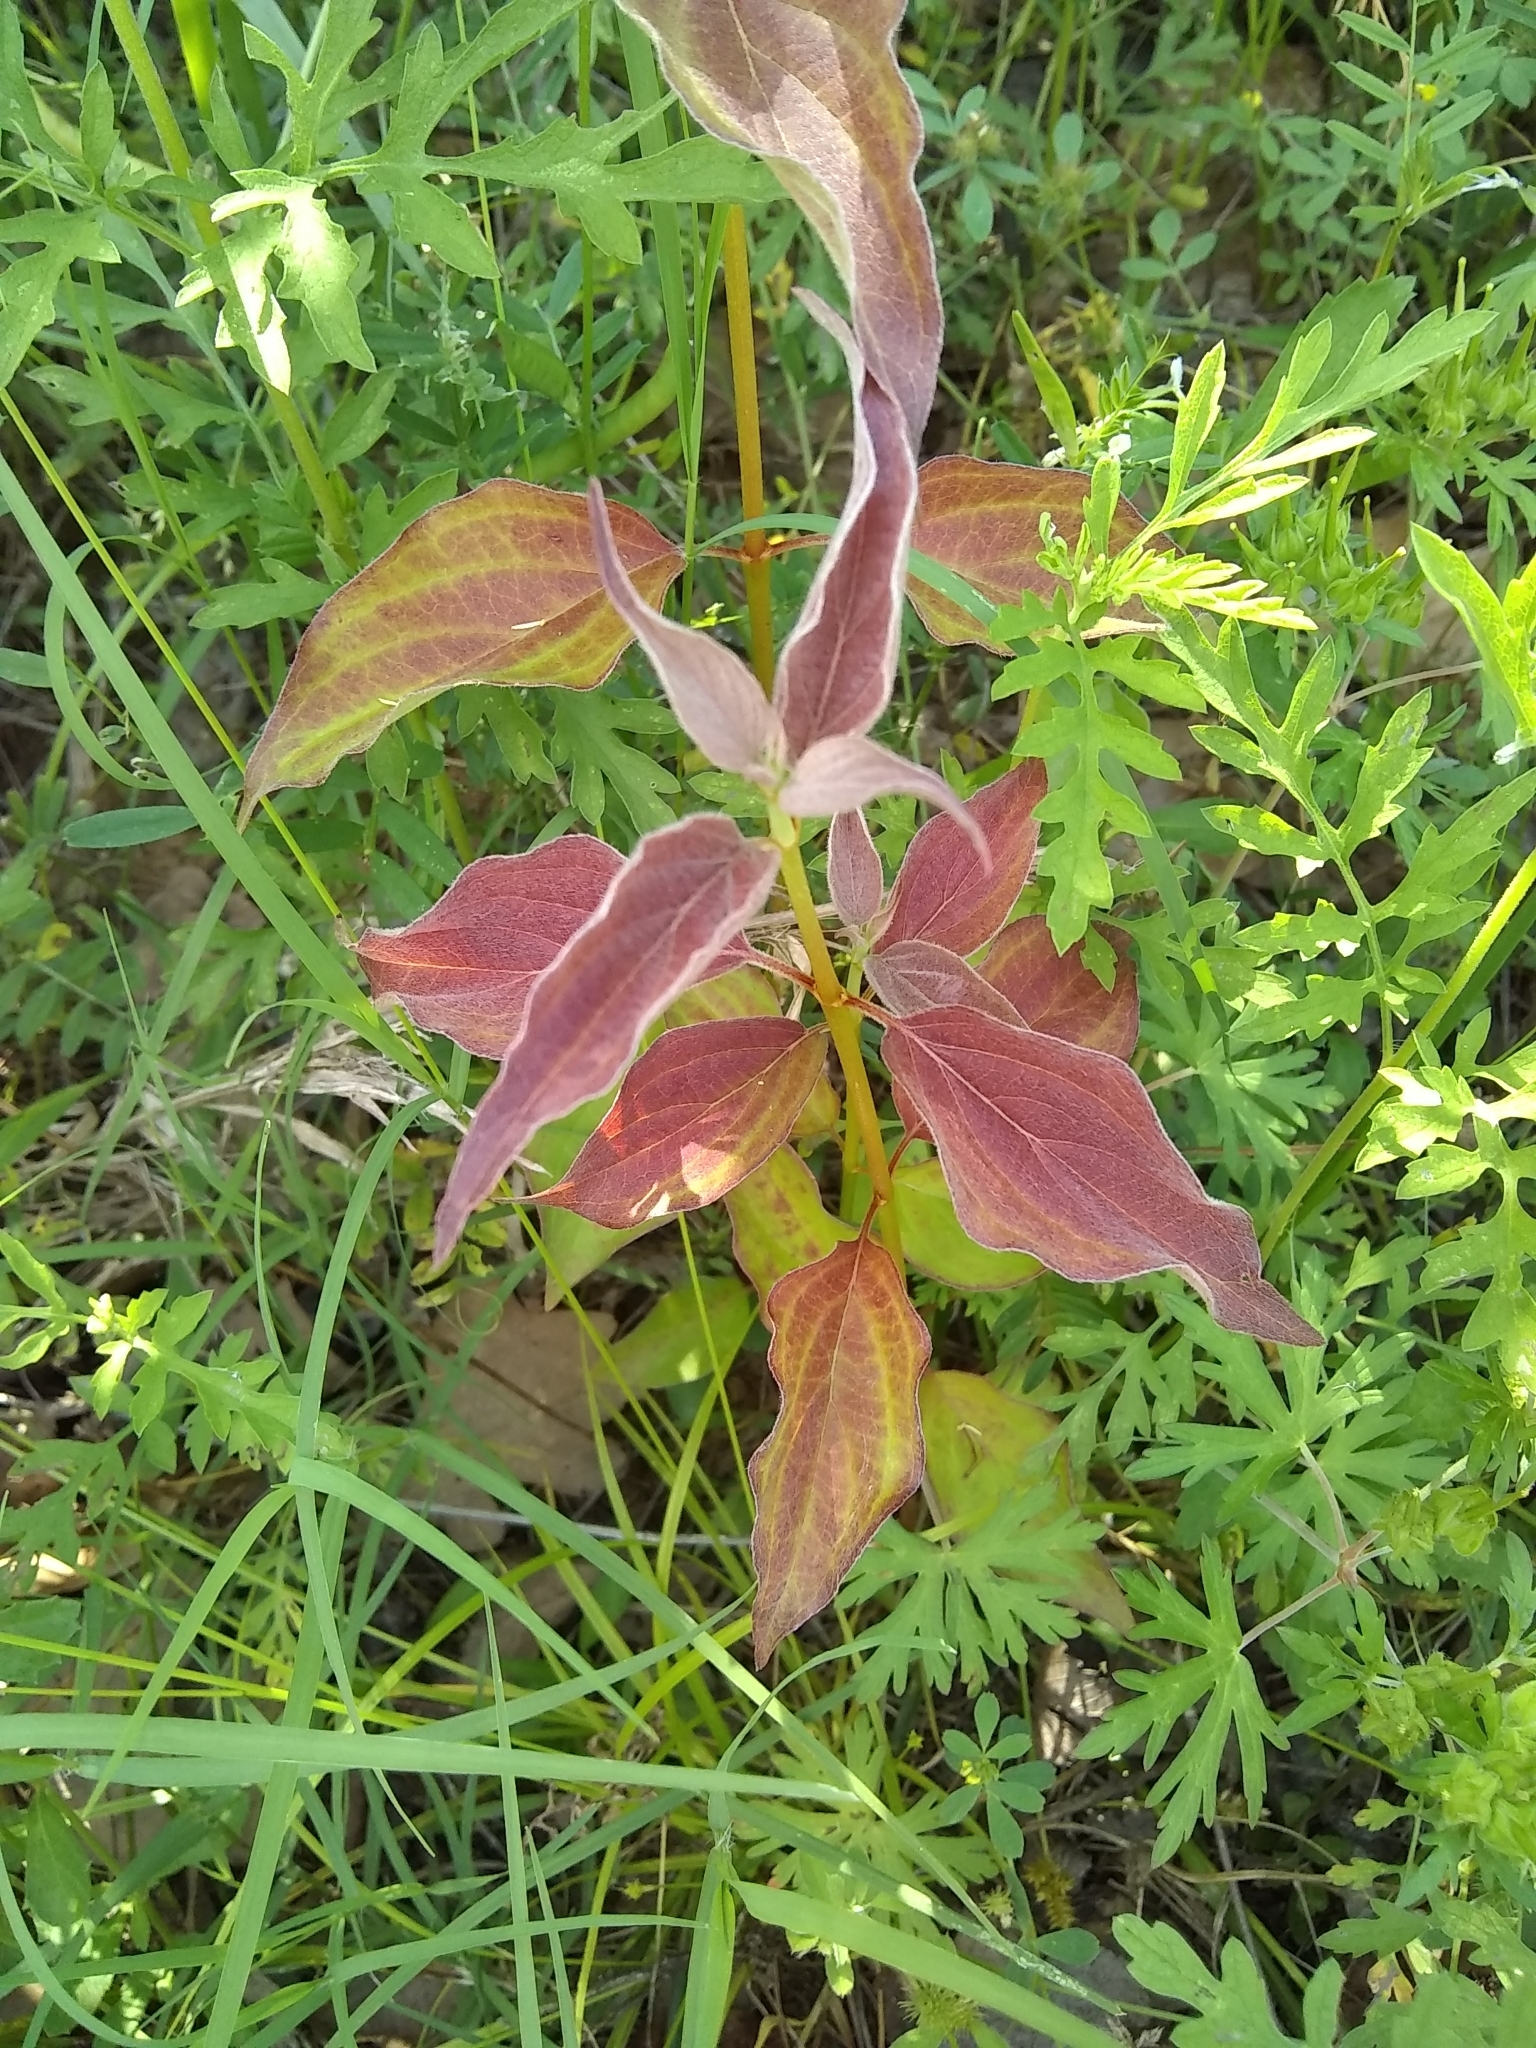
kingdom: Plantae
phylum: Tracheophyta
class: Magnoliopsida
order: Cornales
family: Cornaceae
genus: Cornus
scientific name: Cornus drummondii
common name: Rough-leaf dogwood
